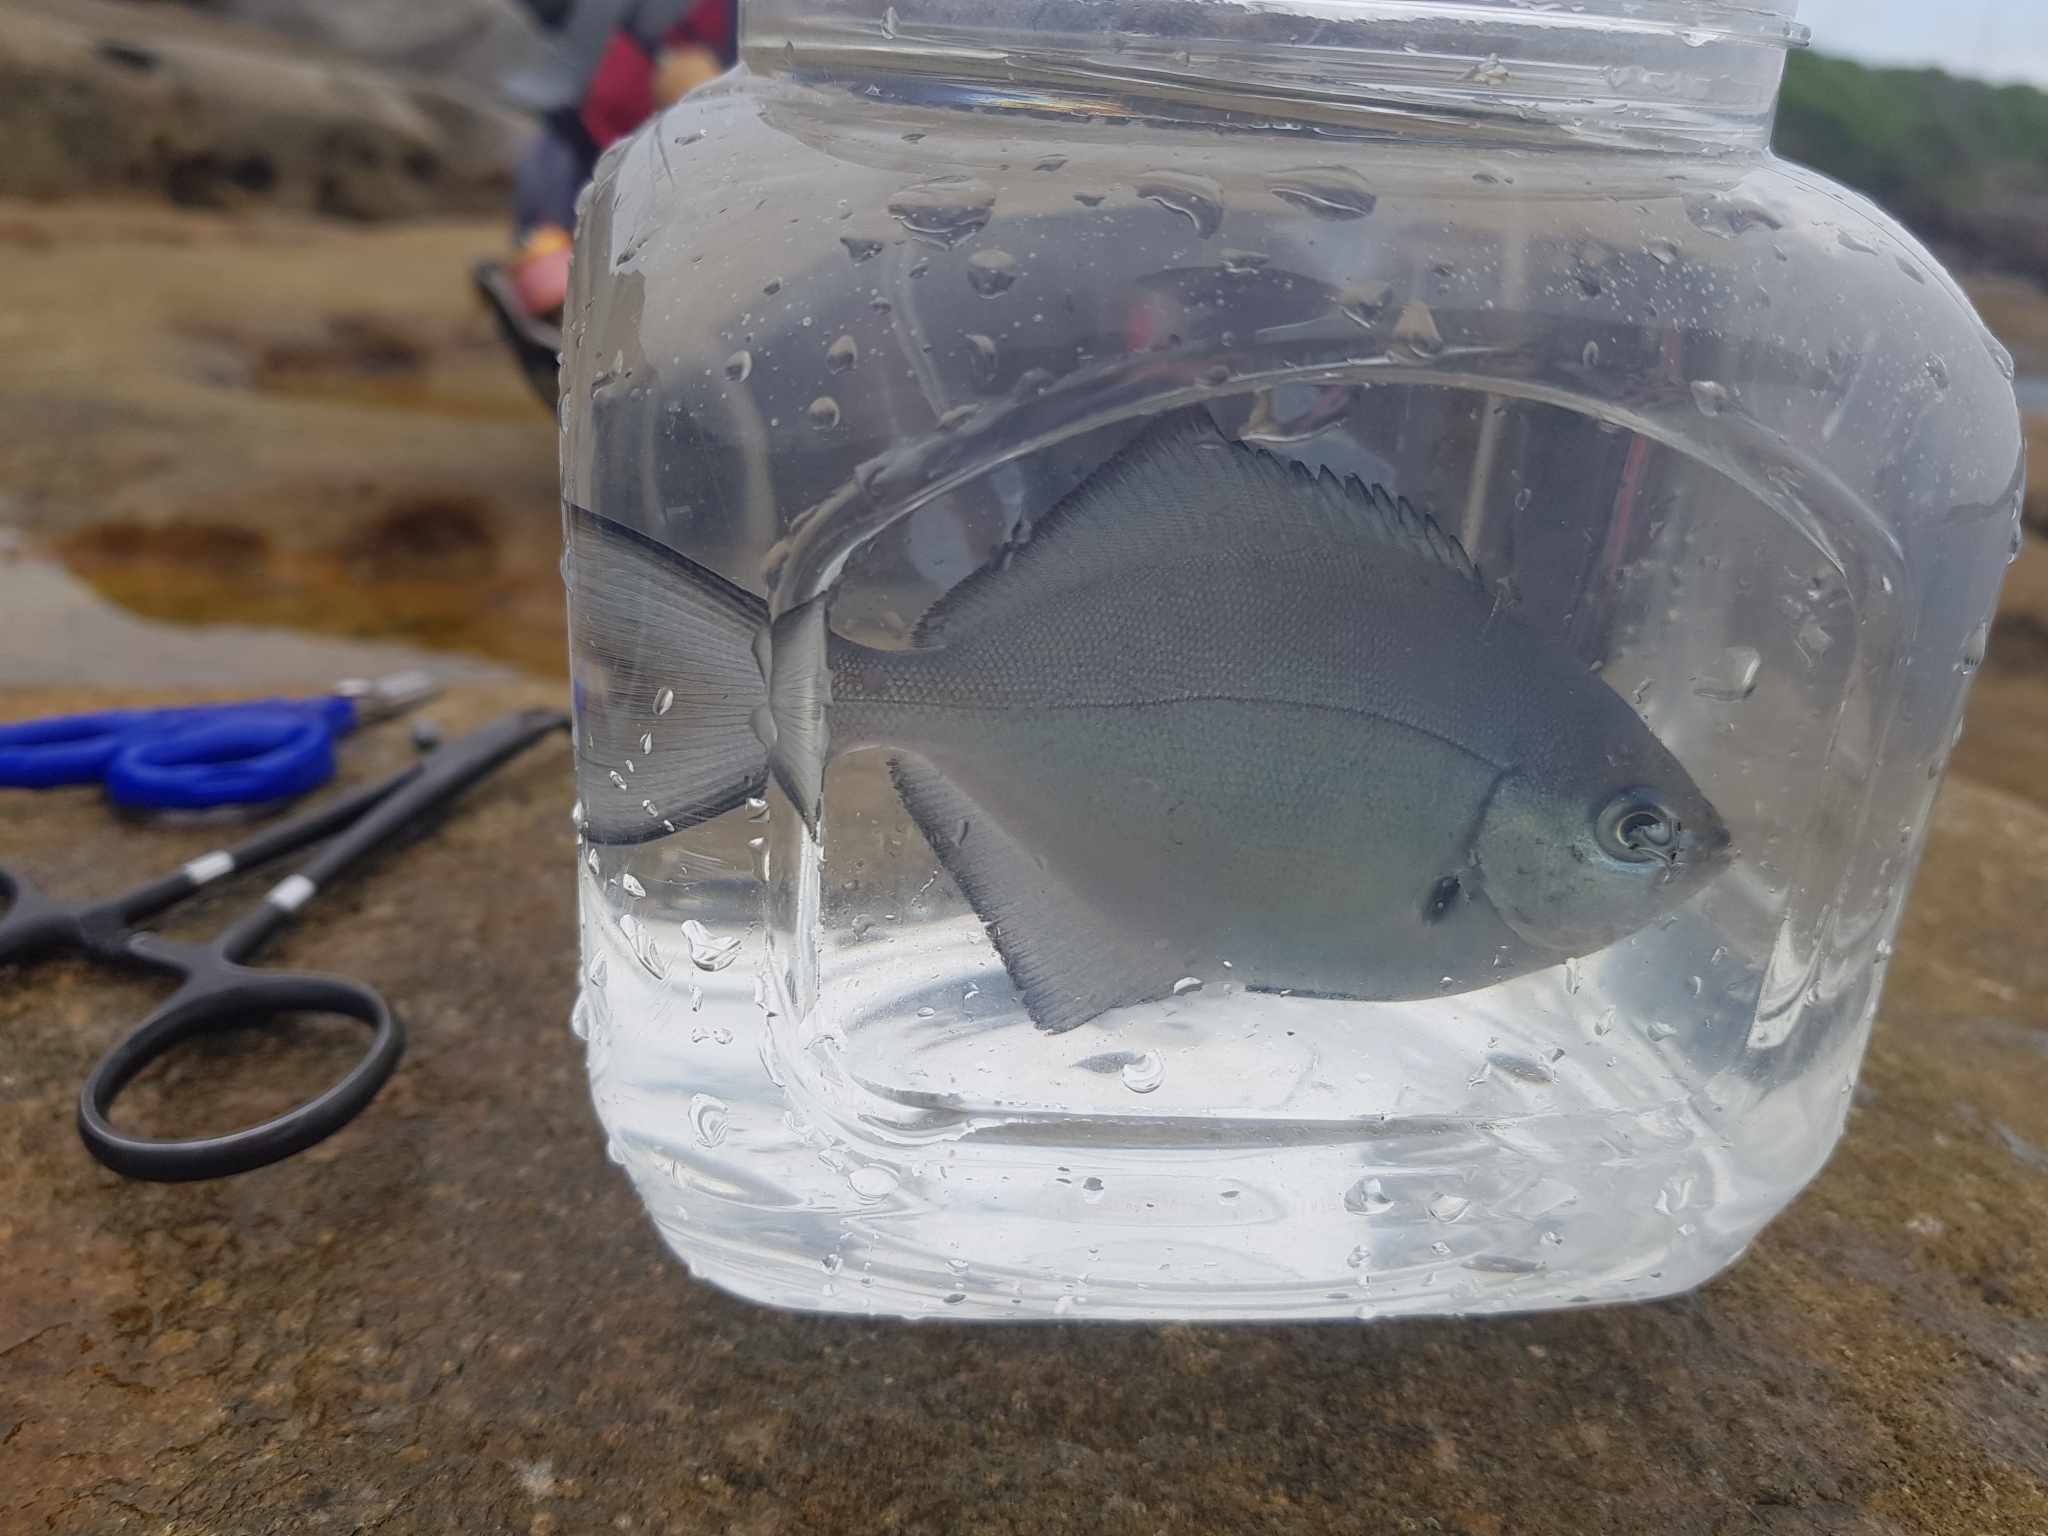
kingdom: Animalia
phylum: Chordata
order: Perciformes
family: Kyphosidae
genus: Scorpis
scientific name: Scorpis lineolata
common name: Sweep
